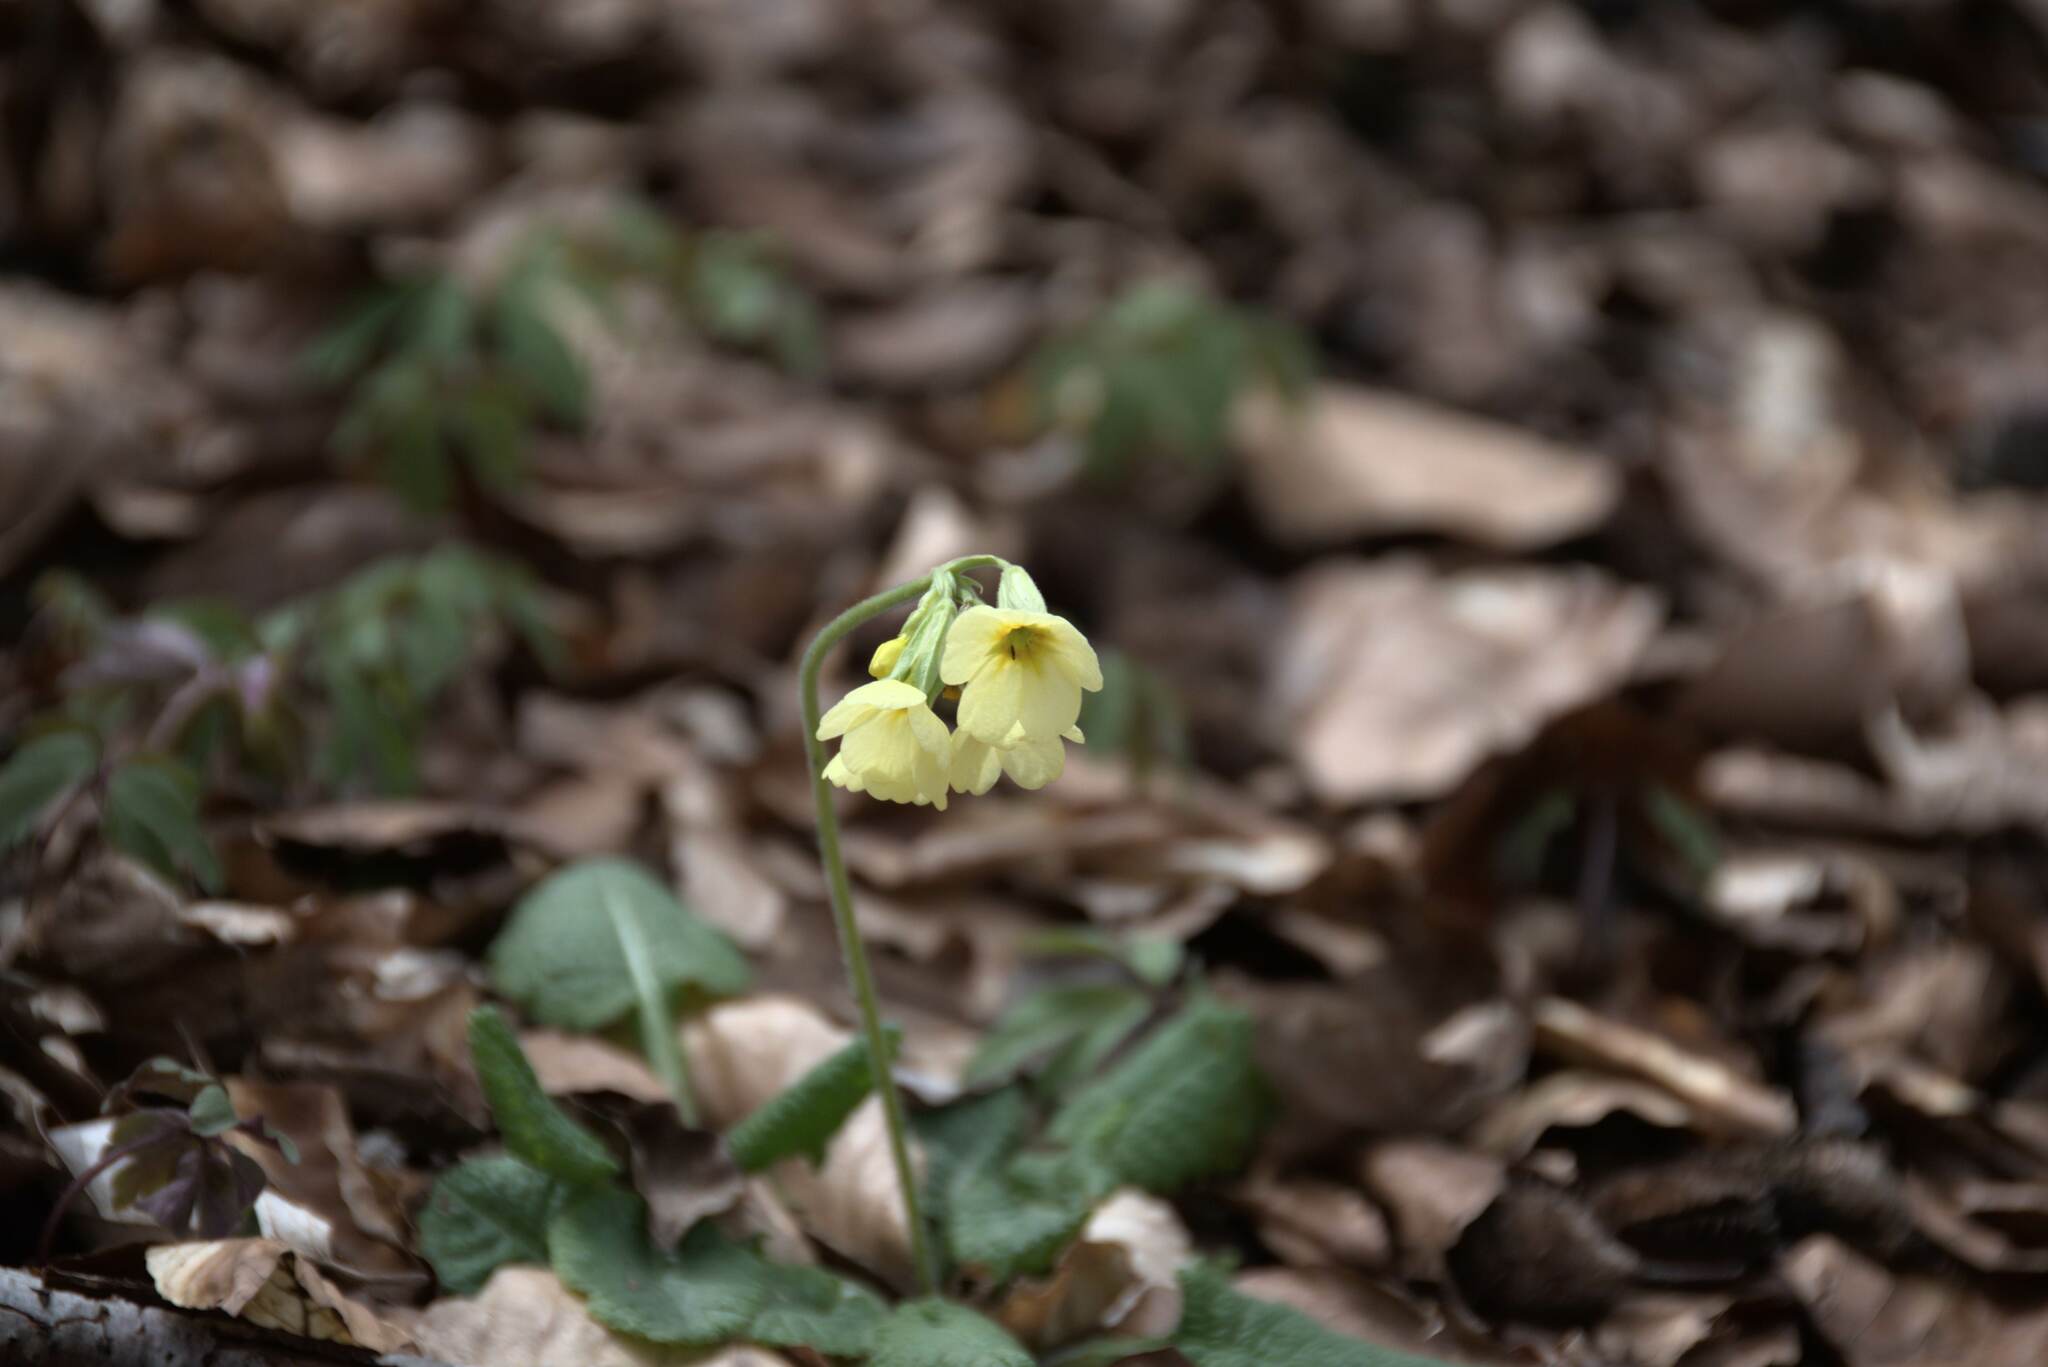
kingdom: Plantae
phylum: Tracheophyta
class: Magnoliopsida
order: Ericales
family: Primulaceae
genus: Primula
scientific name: Primula elatior
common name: Oxlip
